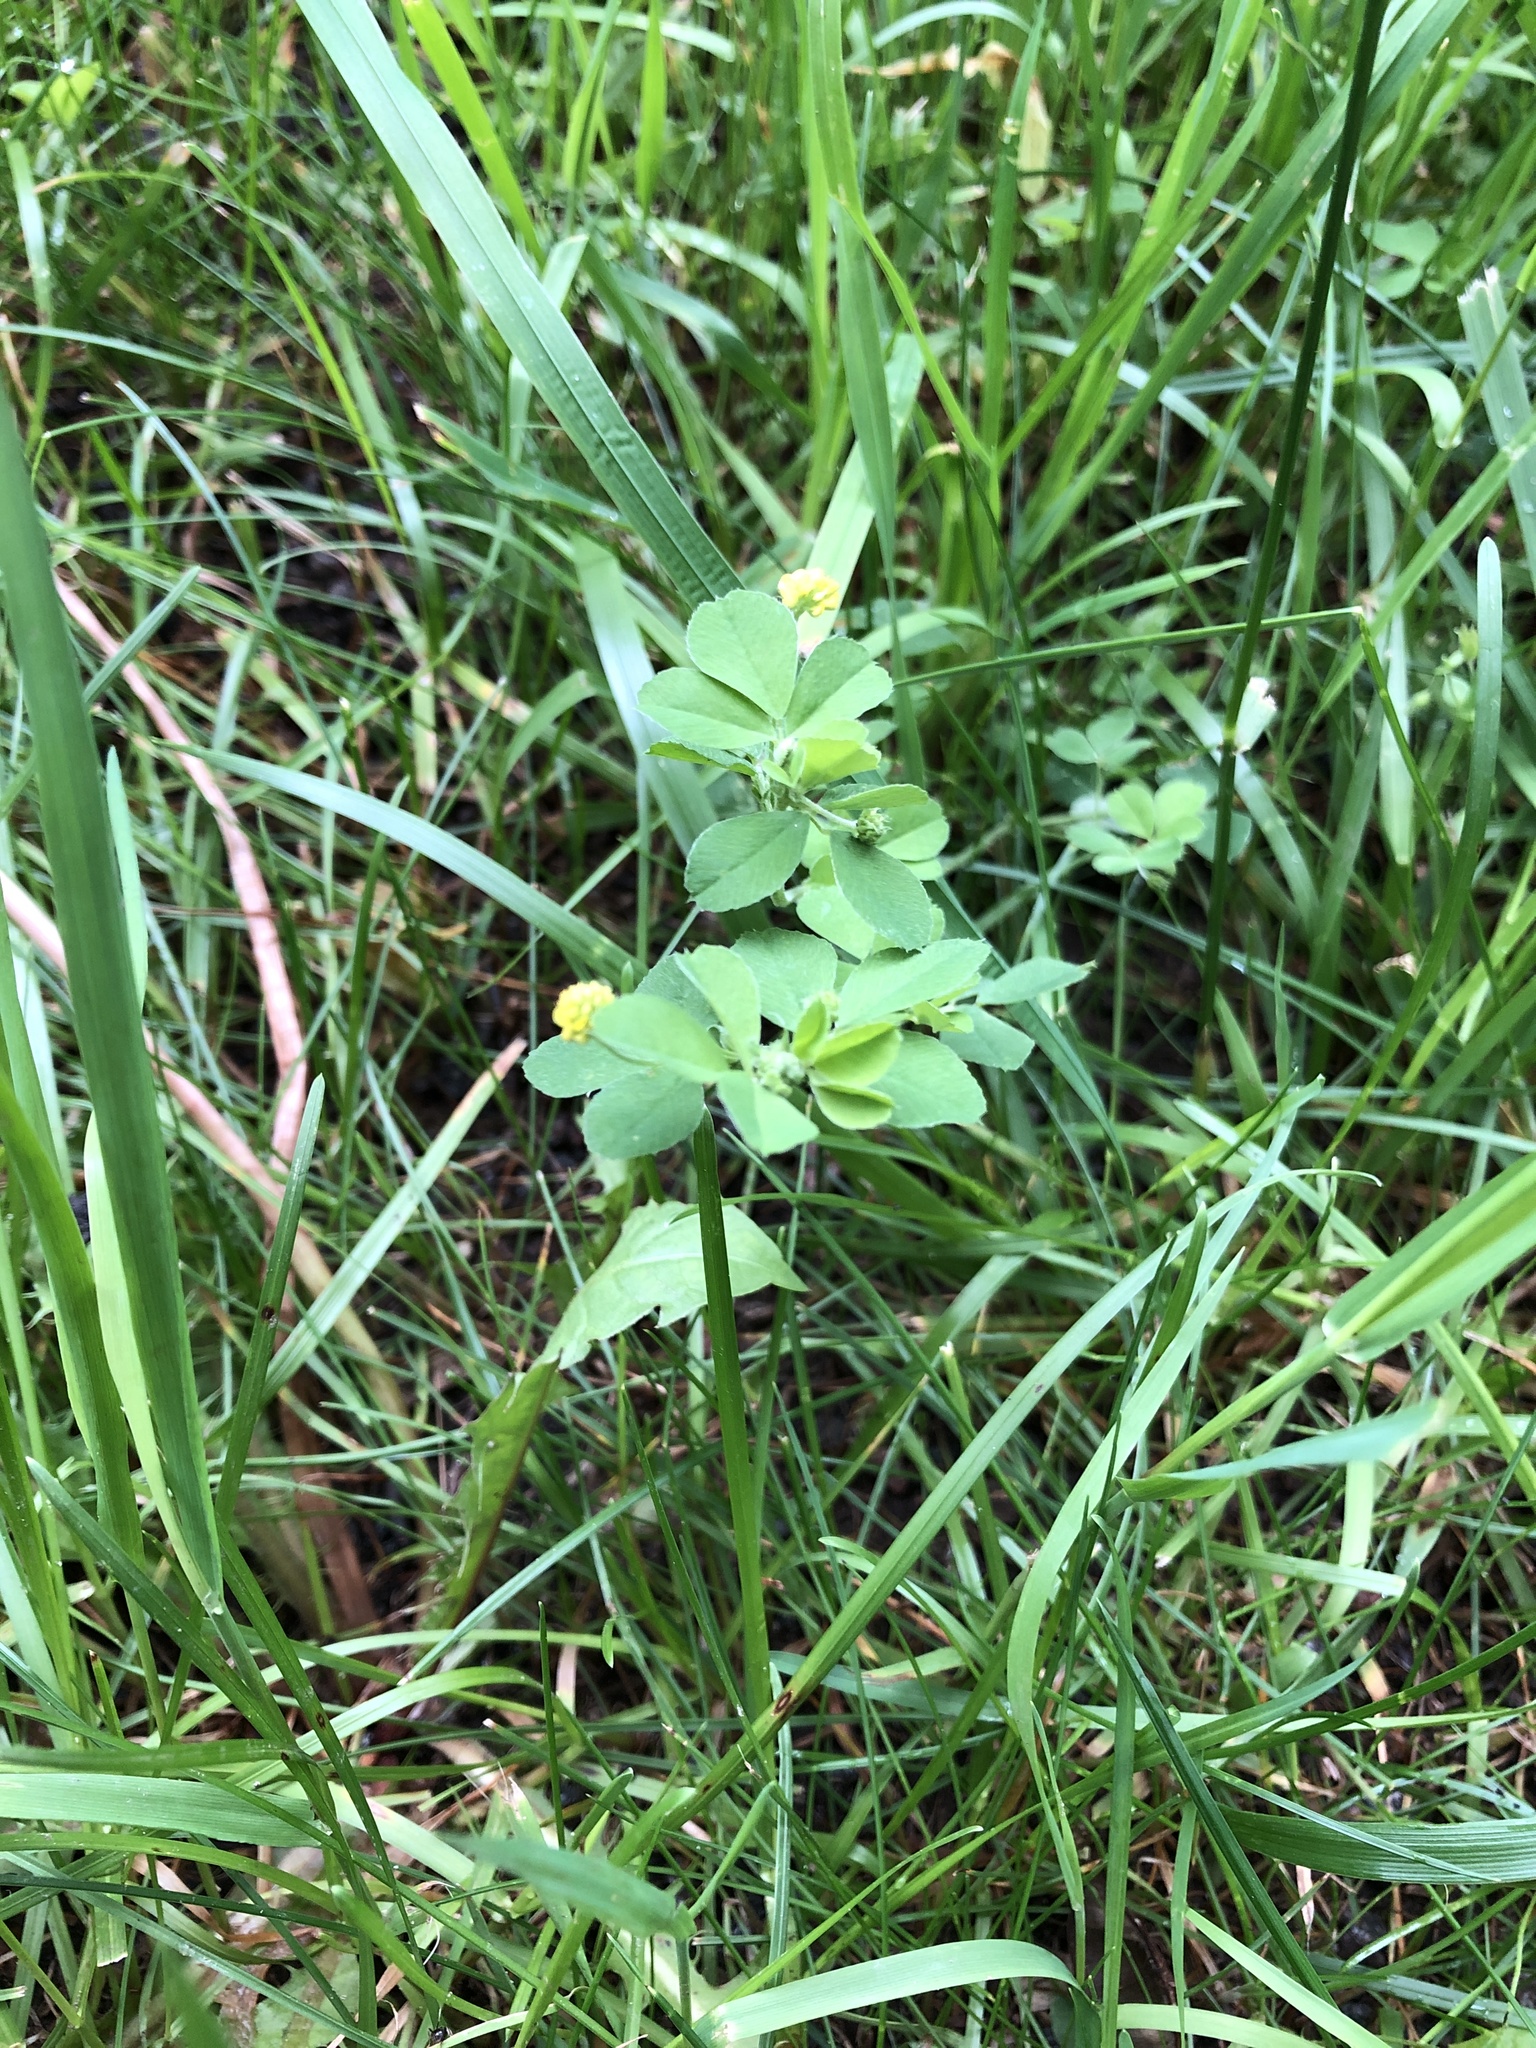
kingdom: Plantae
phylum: Tracheophyta
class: Magnoliopsida
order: Fabales
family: Fabaceae
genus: Medicago
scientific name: Medicago lupulina
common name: Black medick
